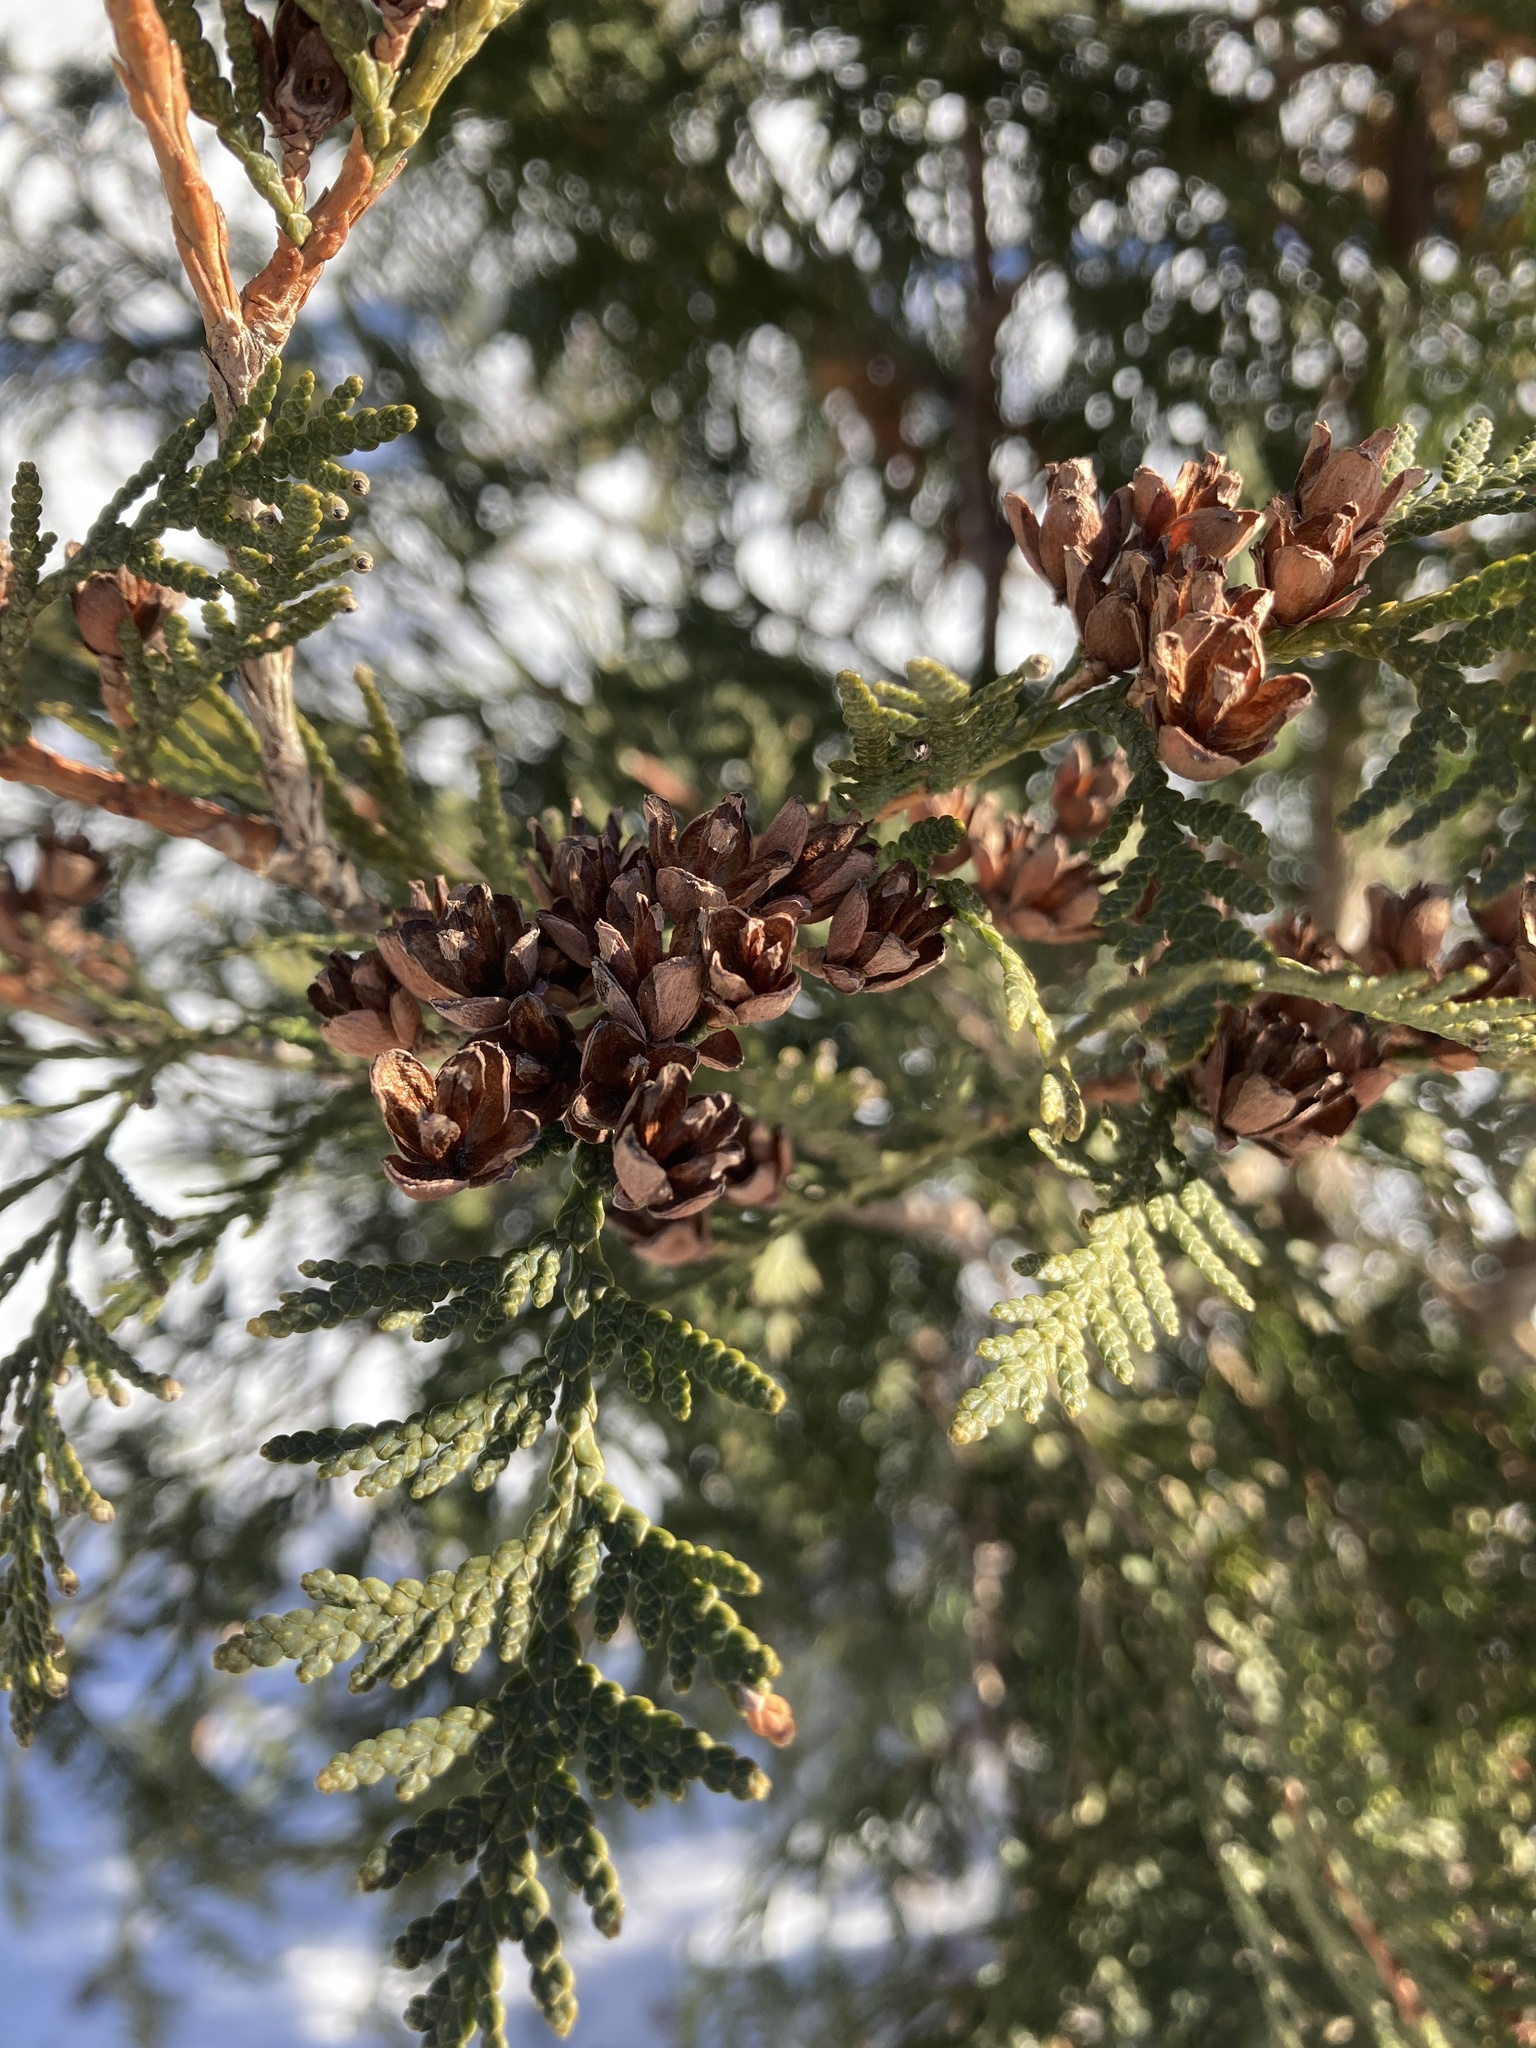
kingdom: Plantae
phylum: Tracheophyta
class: Pinopsida
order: Pinales
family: Cupressaceae
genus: Thuja
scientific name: Thuja occidentalis
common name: Northern white-cedar
